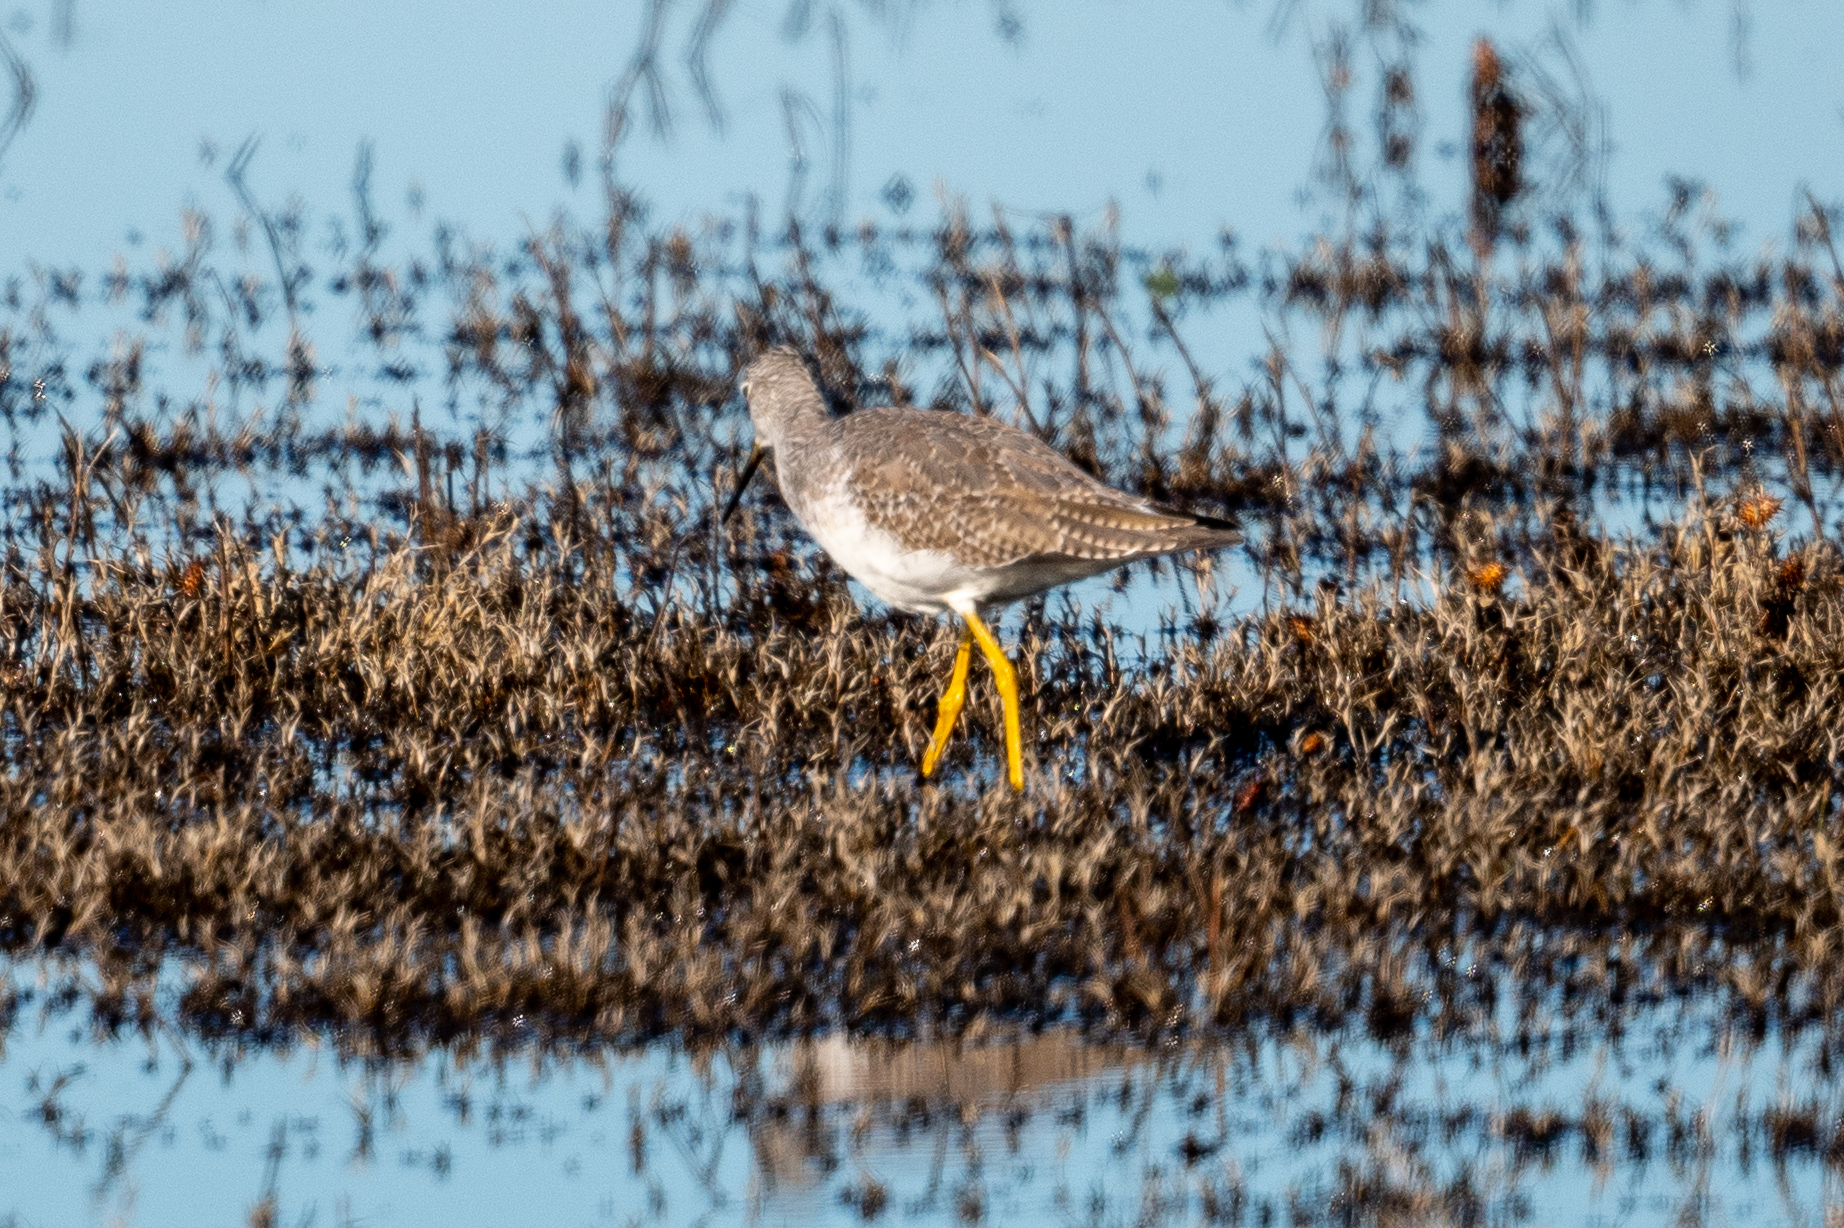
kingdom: Animalia
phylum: Chordata
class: Aves
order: Charadriiformes
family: Scolopacidae
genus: Tringa
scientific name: Tringa melanoleuca
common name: Greater yellowlegs
